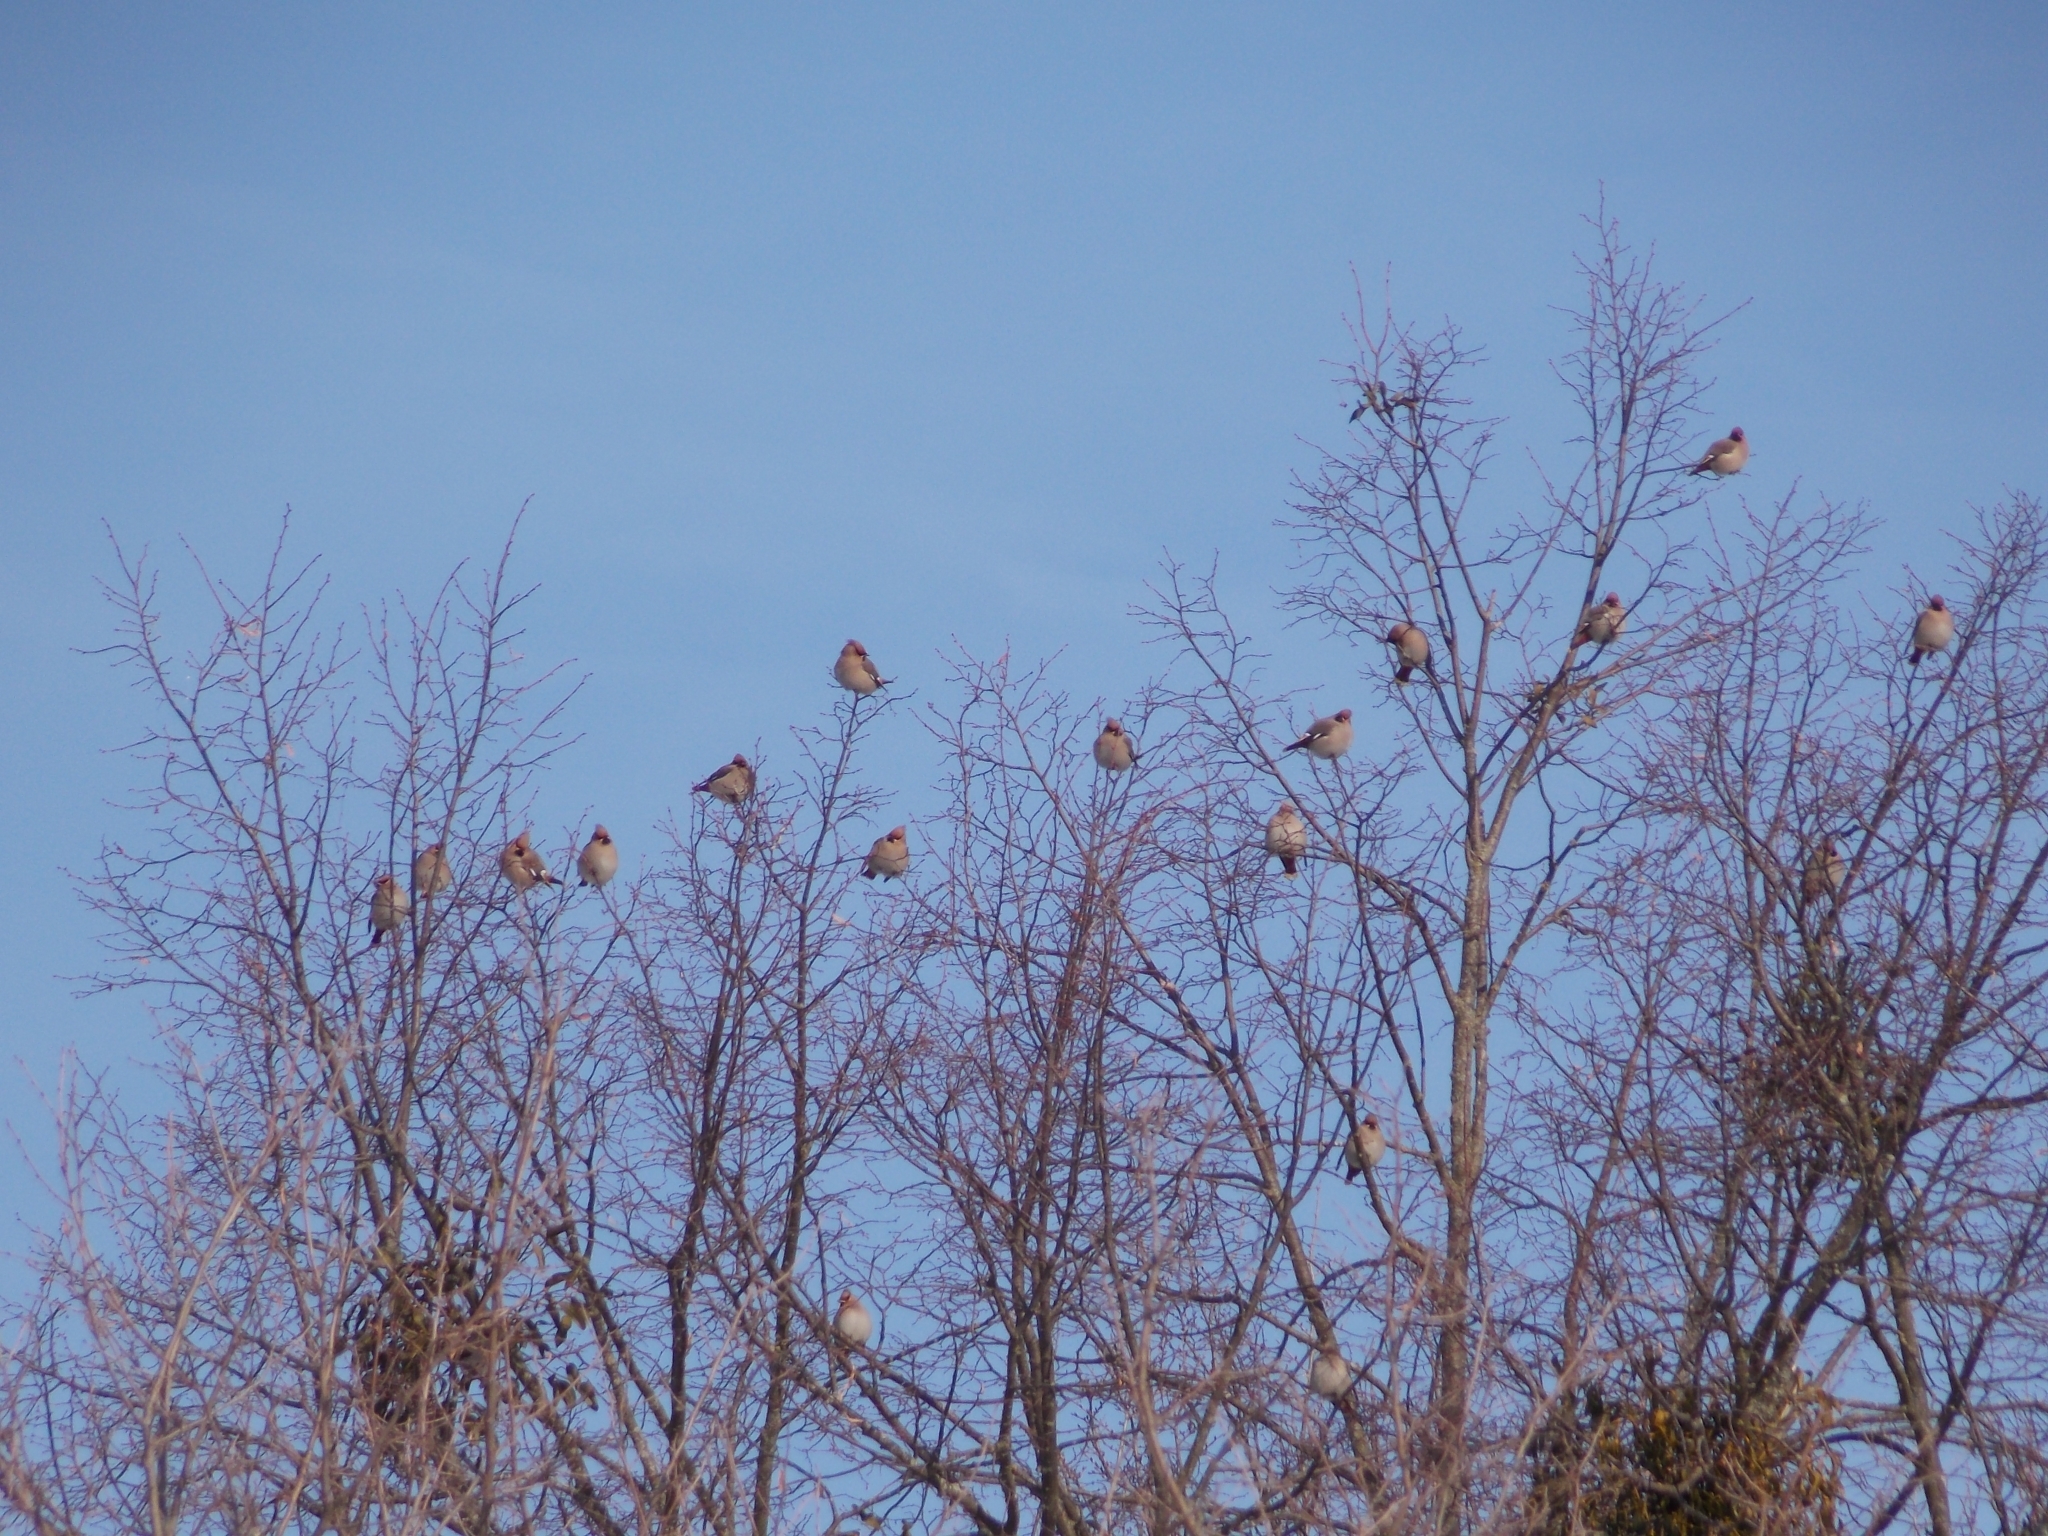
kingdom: Animalia
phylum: Chordata
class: Aves
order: Passeriformes
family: Bombycillidae
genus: Bombycilla
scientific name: Bombycilla garrulus
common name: Bohemian waxwing
